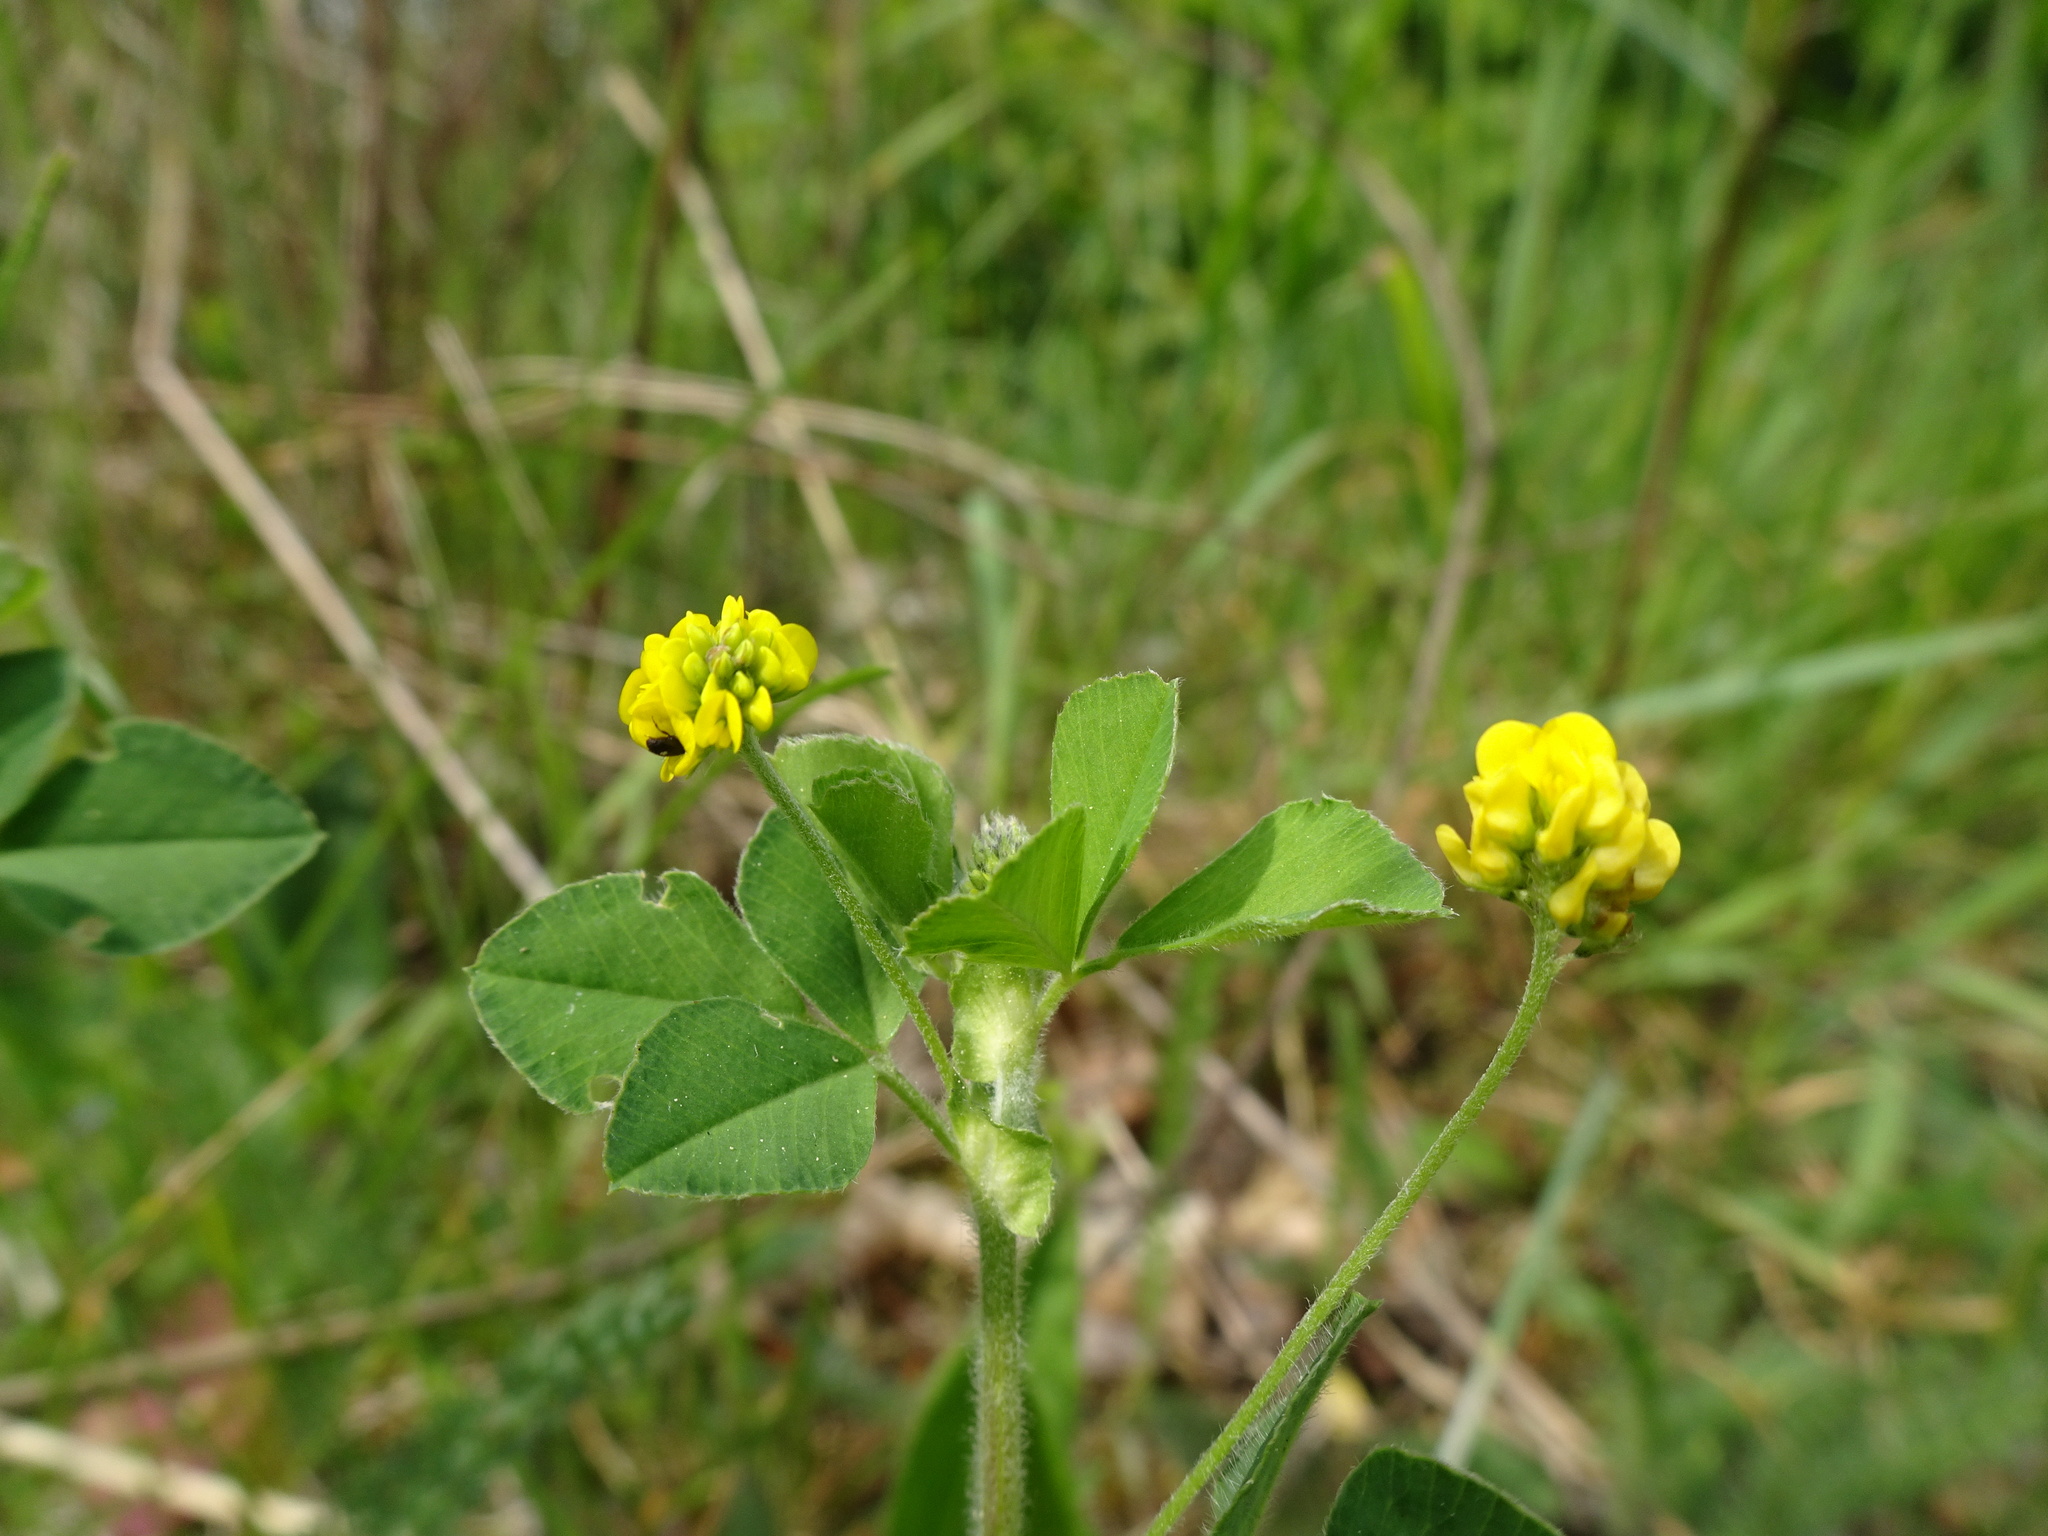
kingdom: Plantae
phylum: Tracheophyta
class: Magnoliopsida
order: Fabales
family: Fabaceae
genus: Medicago
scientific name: Medicago lupulina
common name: Black medick
